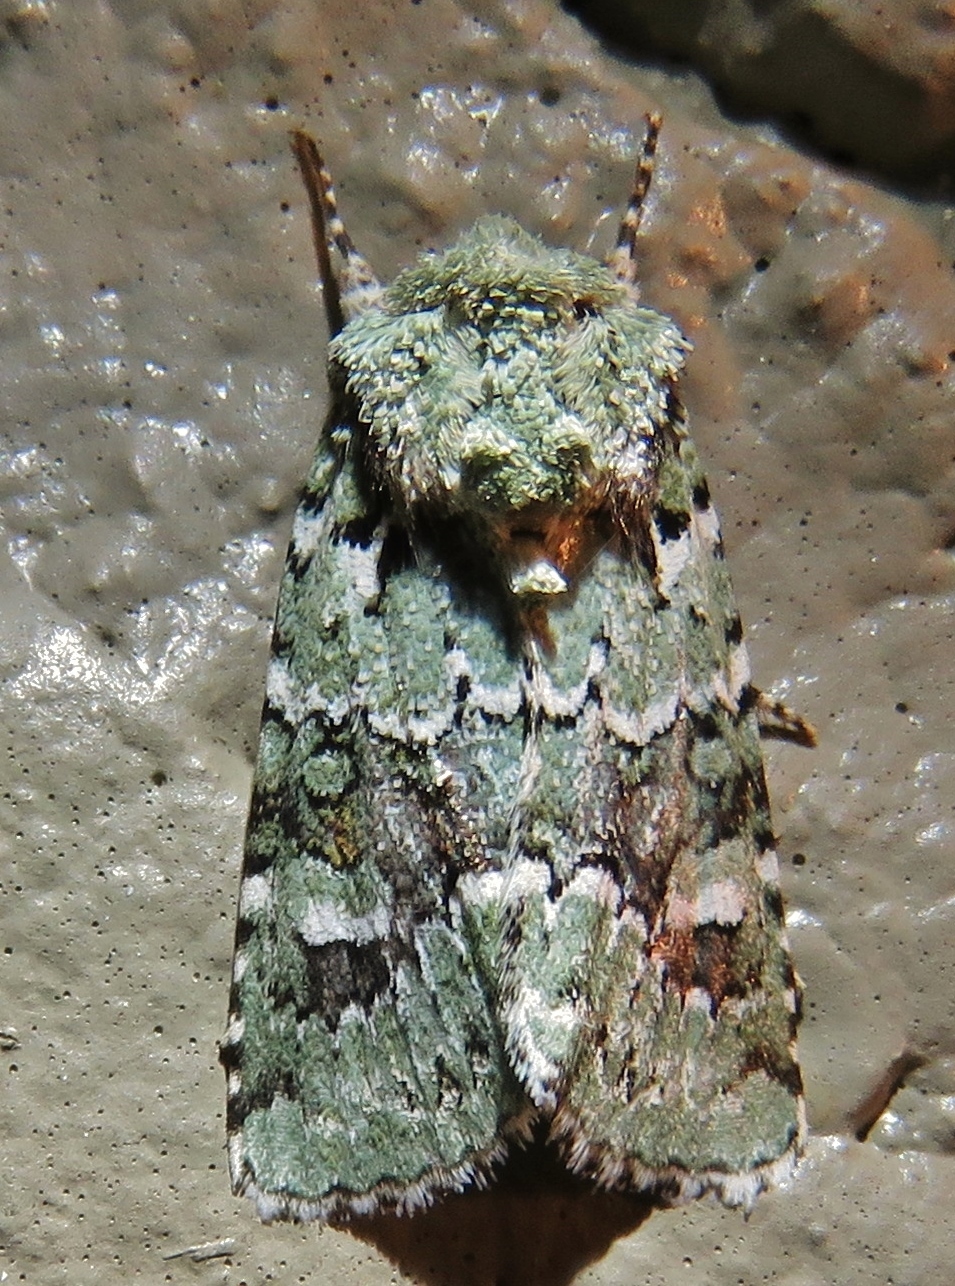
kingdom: Animalia
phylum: Arthropoda
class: Insecta
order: Lepidoptera
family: Noctuidae
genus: Lacinipolia
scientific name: Lacinipolia laudabilis
